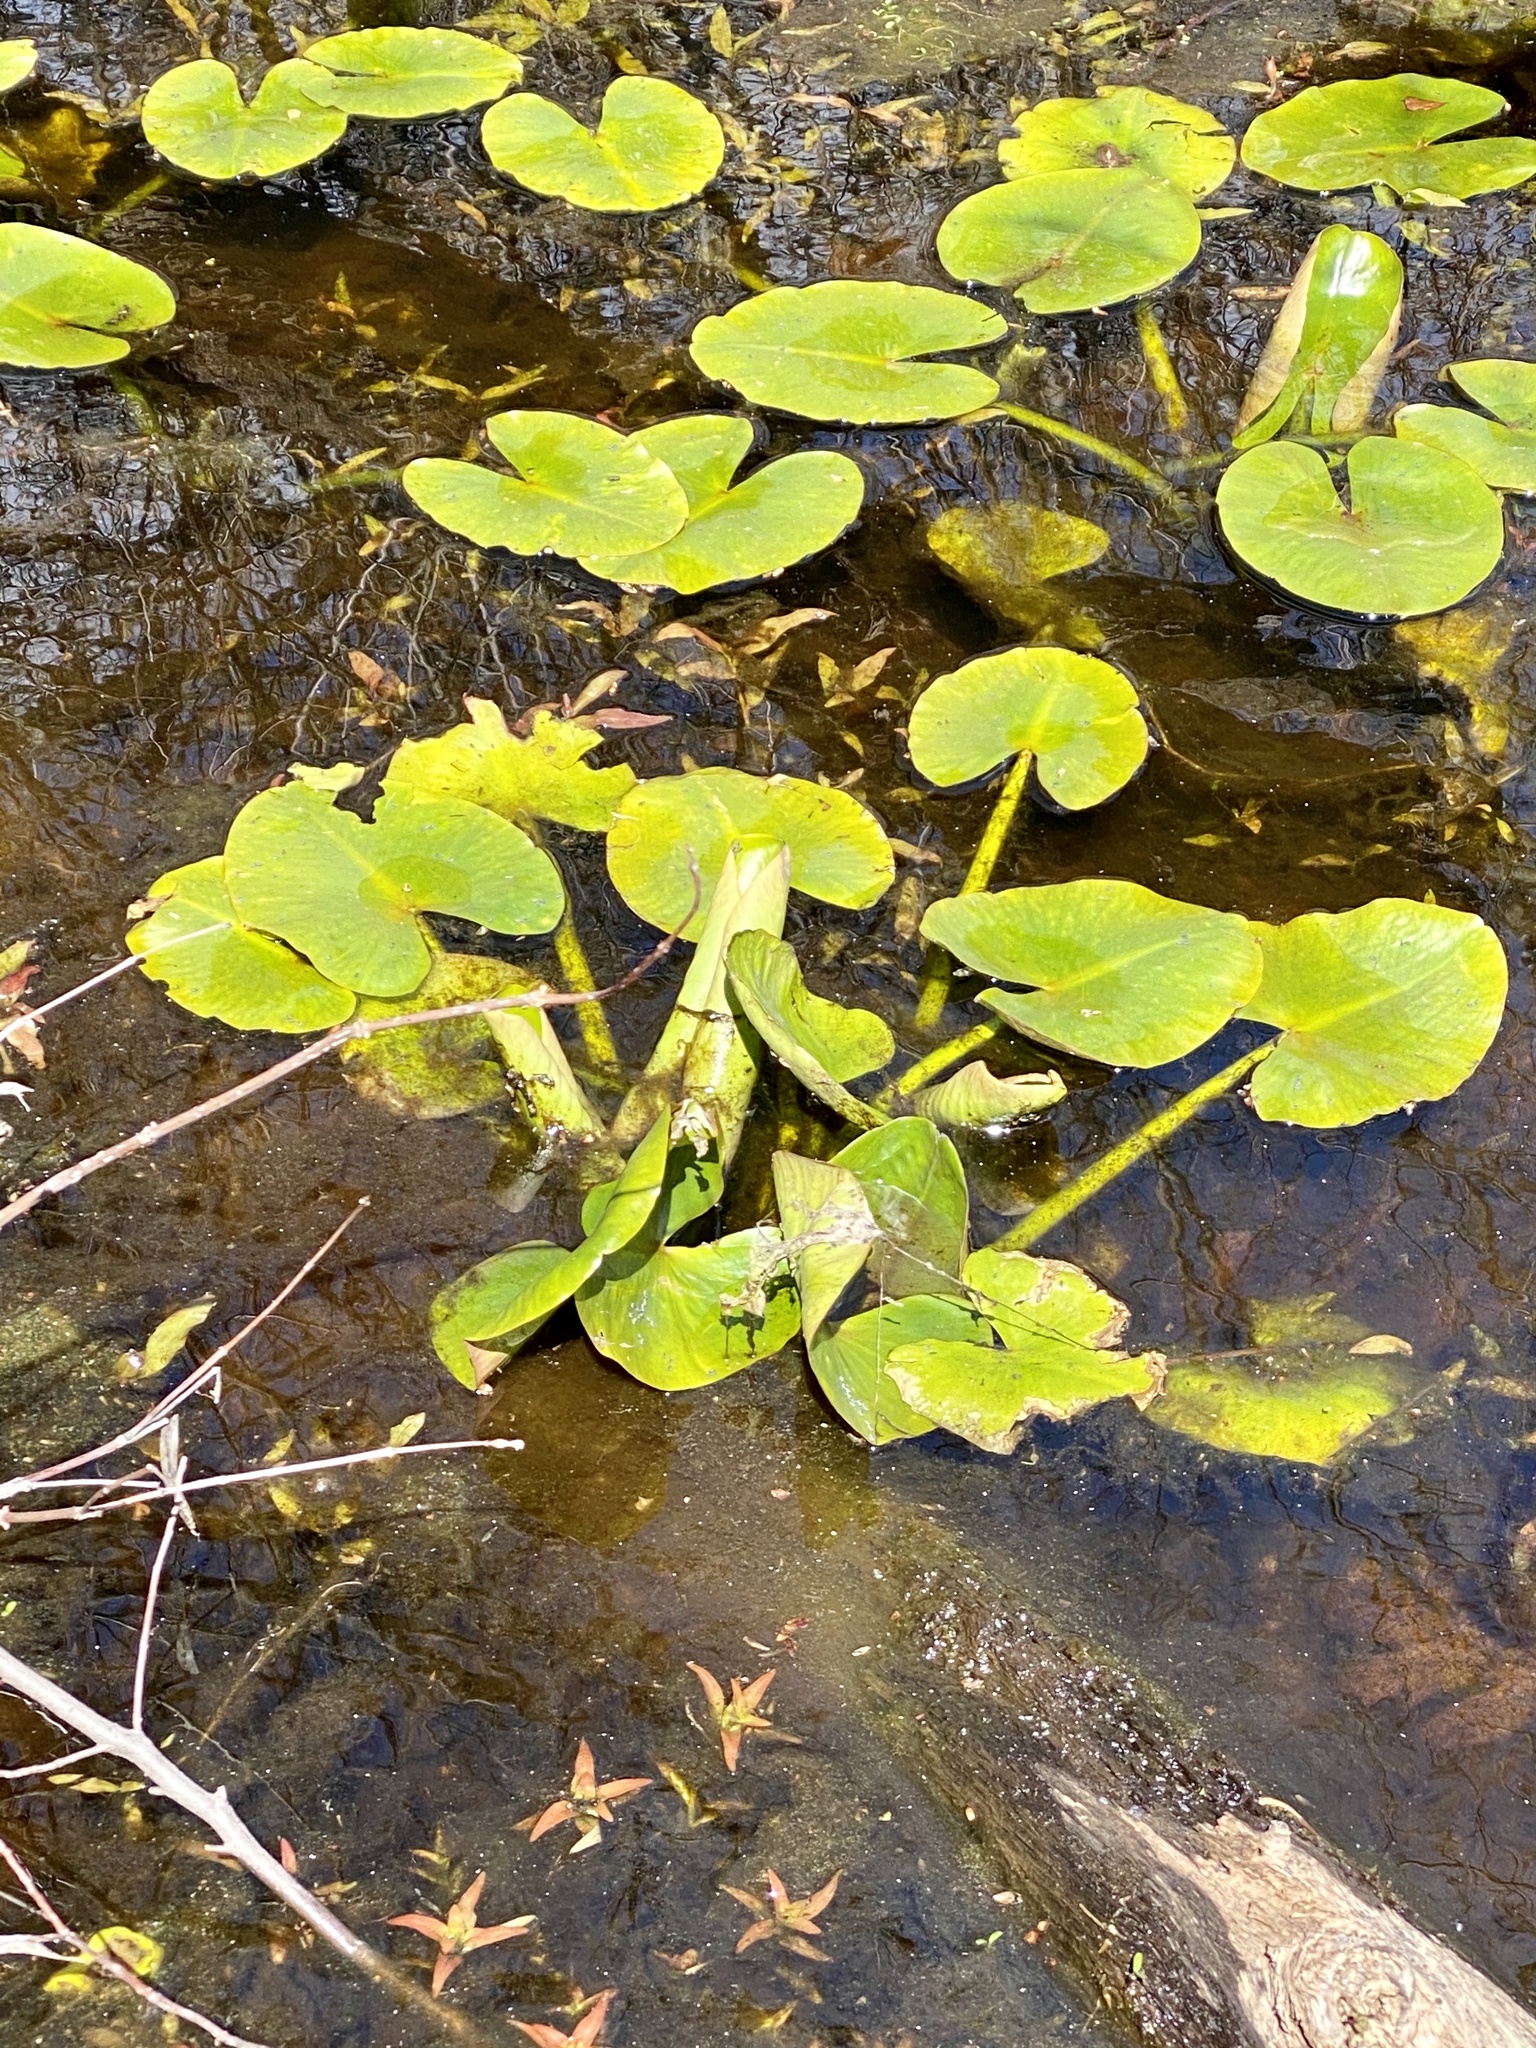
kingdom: Plantae
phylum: Tracheophyta
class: Magnoliopsida
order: Nymphaeales
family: Nymphaeaceae
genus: Nuphar
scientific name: Nuphar advena
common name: Spatter-dock
